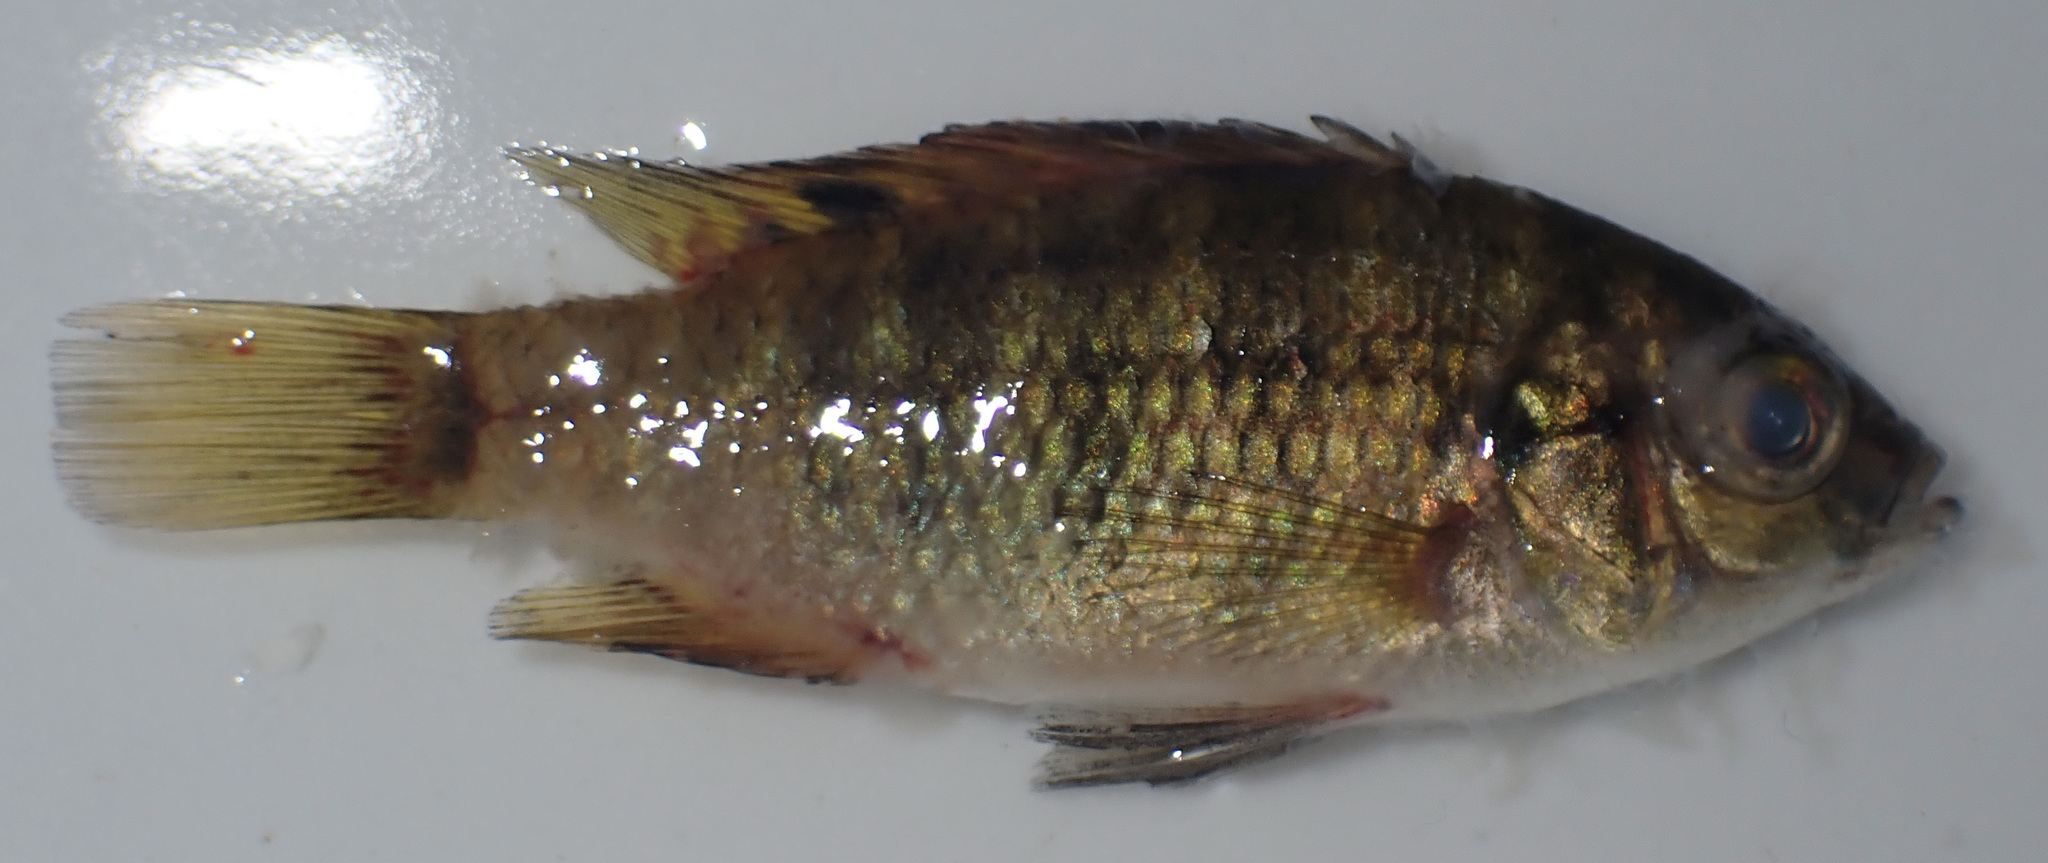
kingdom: Animalia
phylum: Chordata
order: Perciformes
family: Cichlidae
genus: Tilapia
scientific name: Tilapia sparrmanii
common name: Banded tilapia
